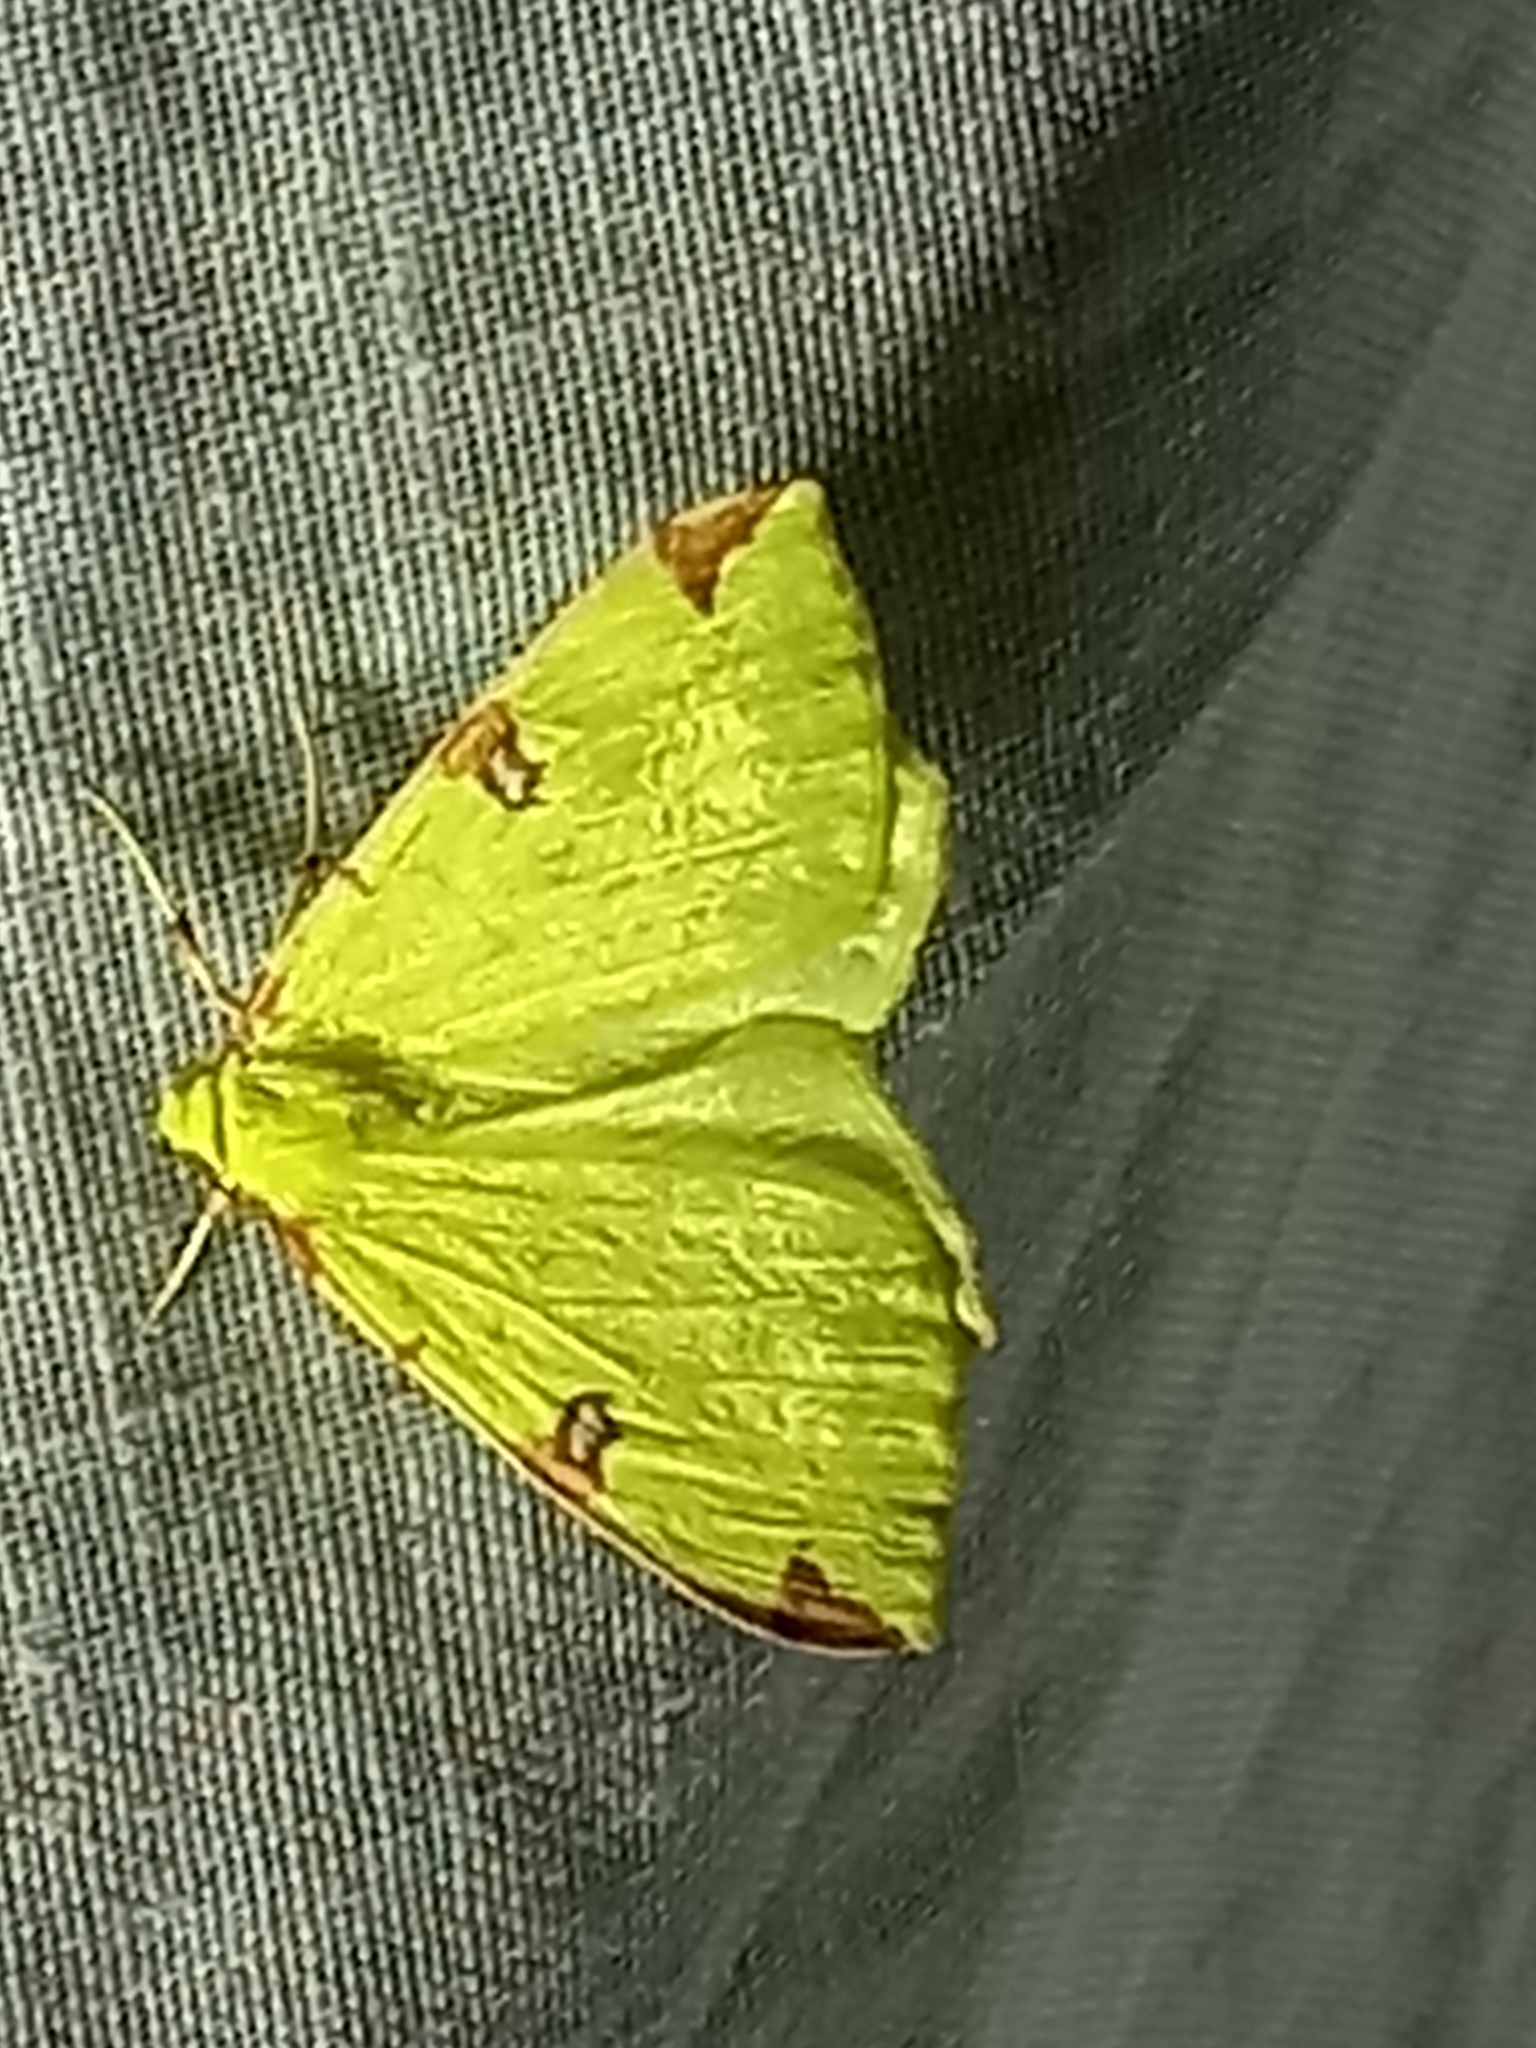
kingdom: Animalia
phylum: Arthropoda
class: Insecta
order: Lepidoptera
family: Geometridae
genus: Opisthograptis
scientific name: Opisthograptis luteolata
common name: Brimstone moth
